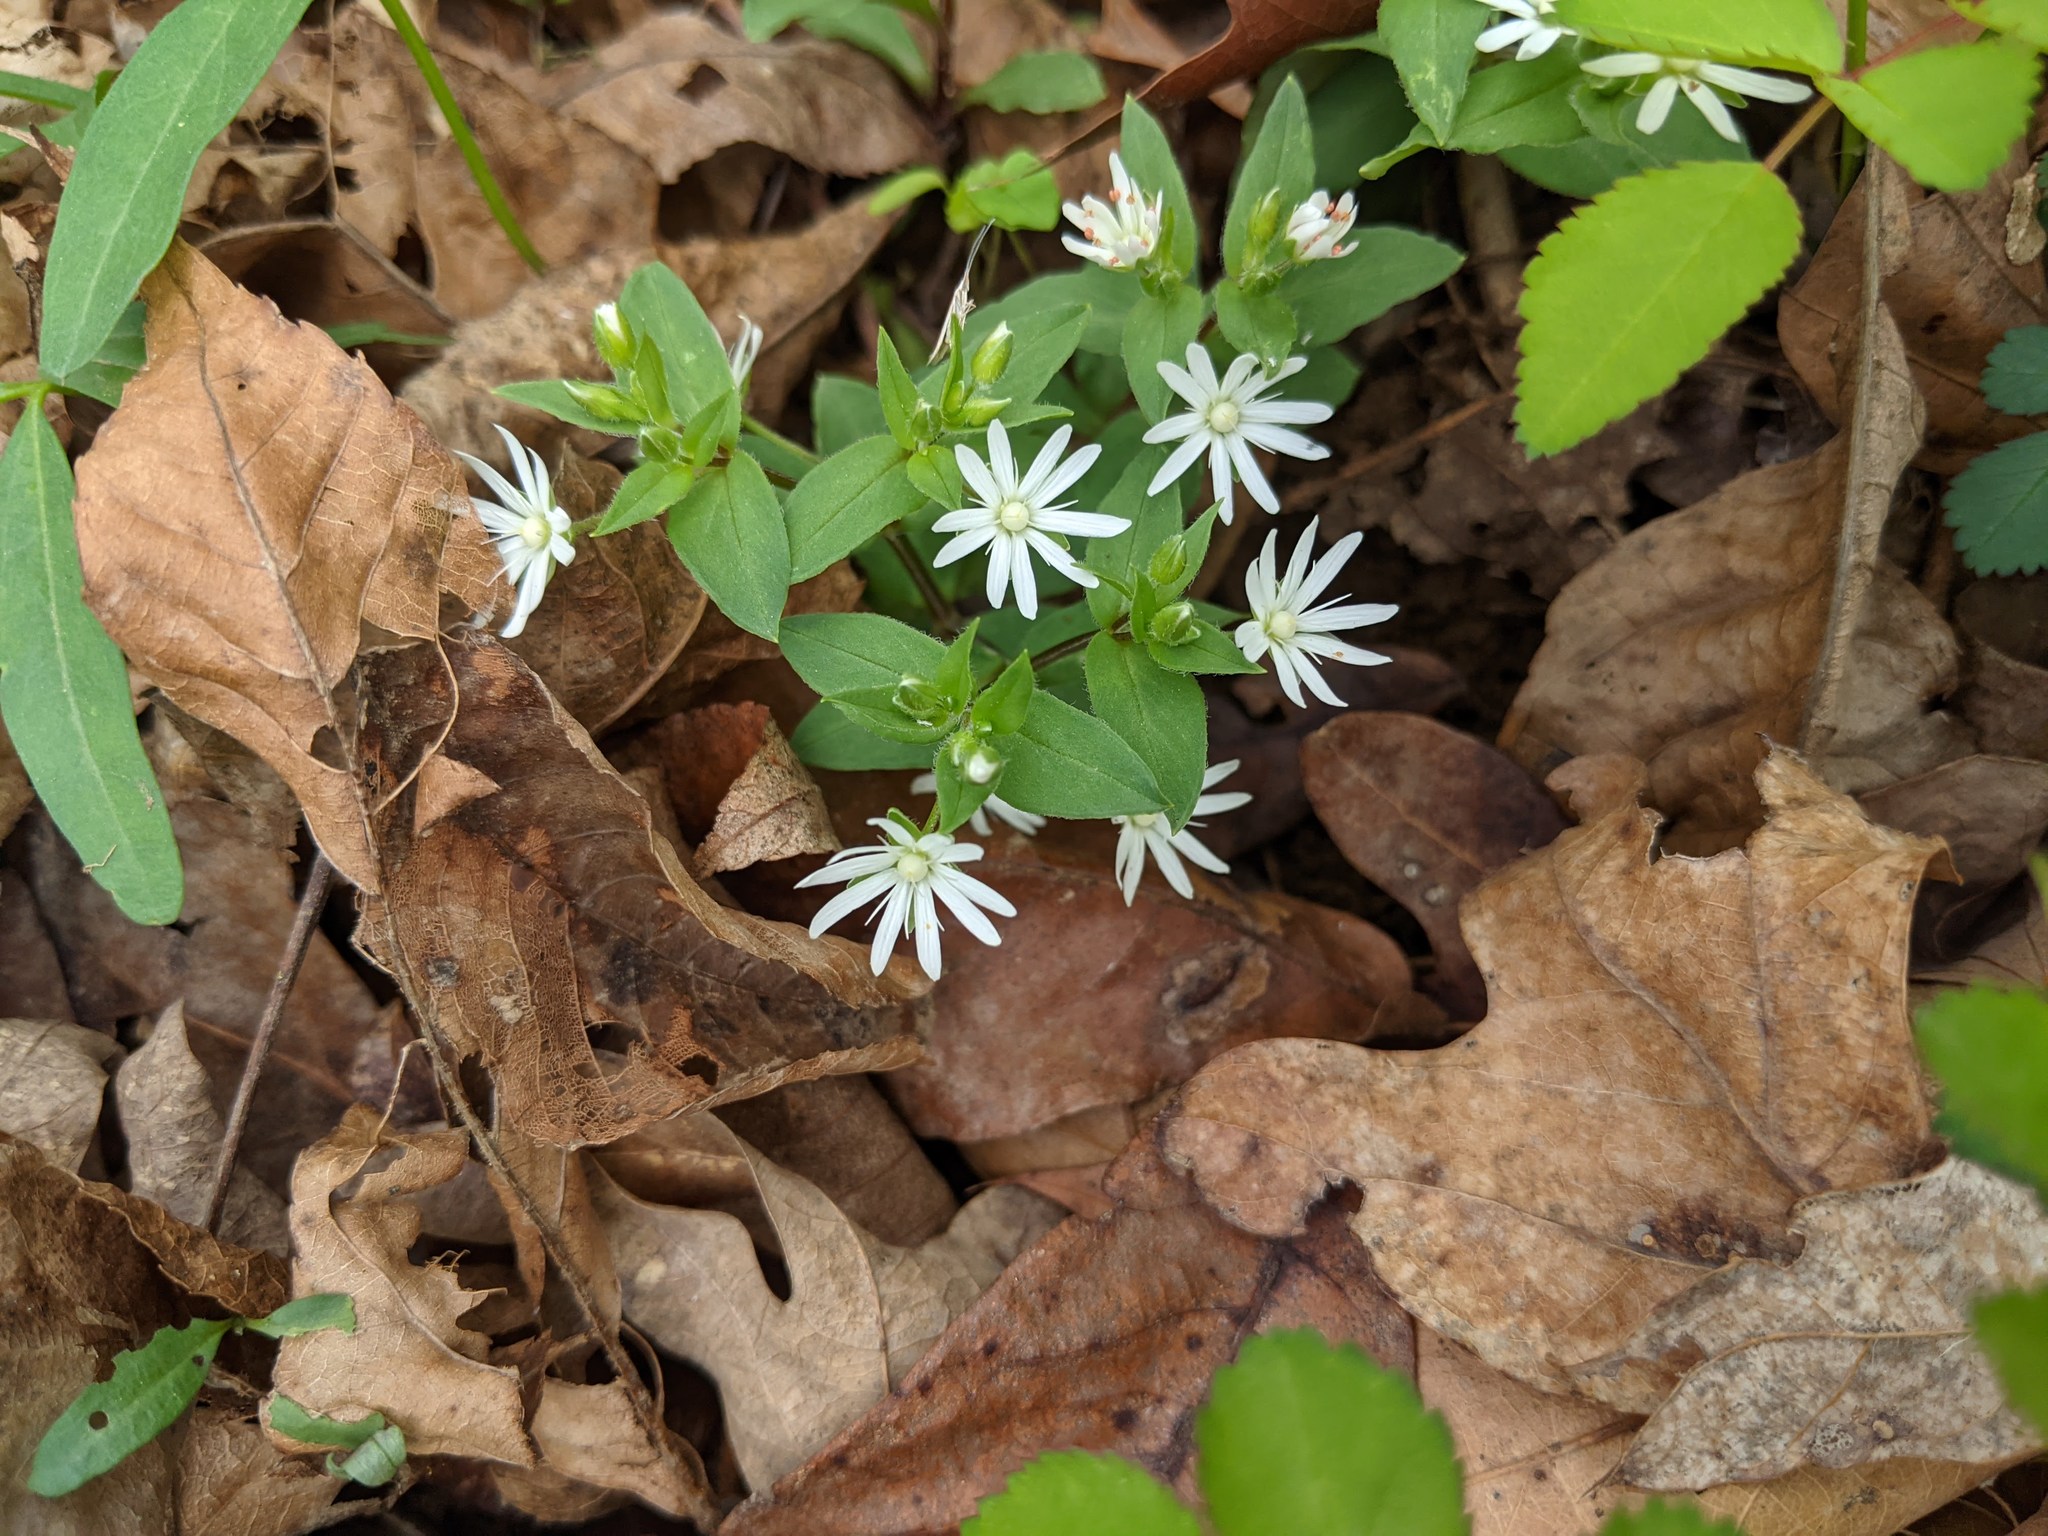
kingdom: Plantae
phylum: Tracheophyta
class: Magnoliopsida
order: Caryophyllales
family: Caryophyllaceae
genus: Stellaria
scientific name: Stellaria pubera
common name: Star chickweed
